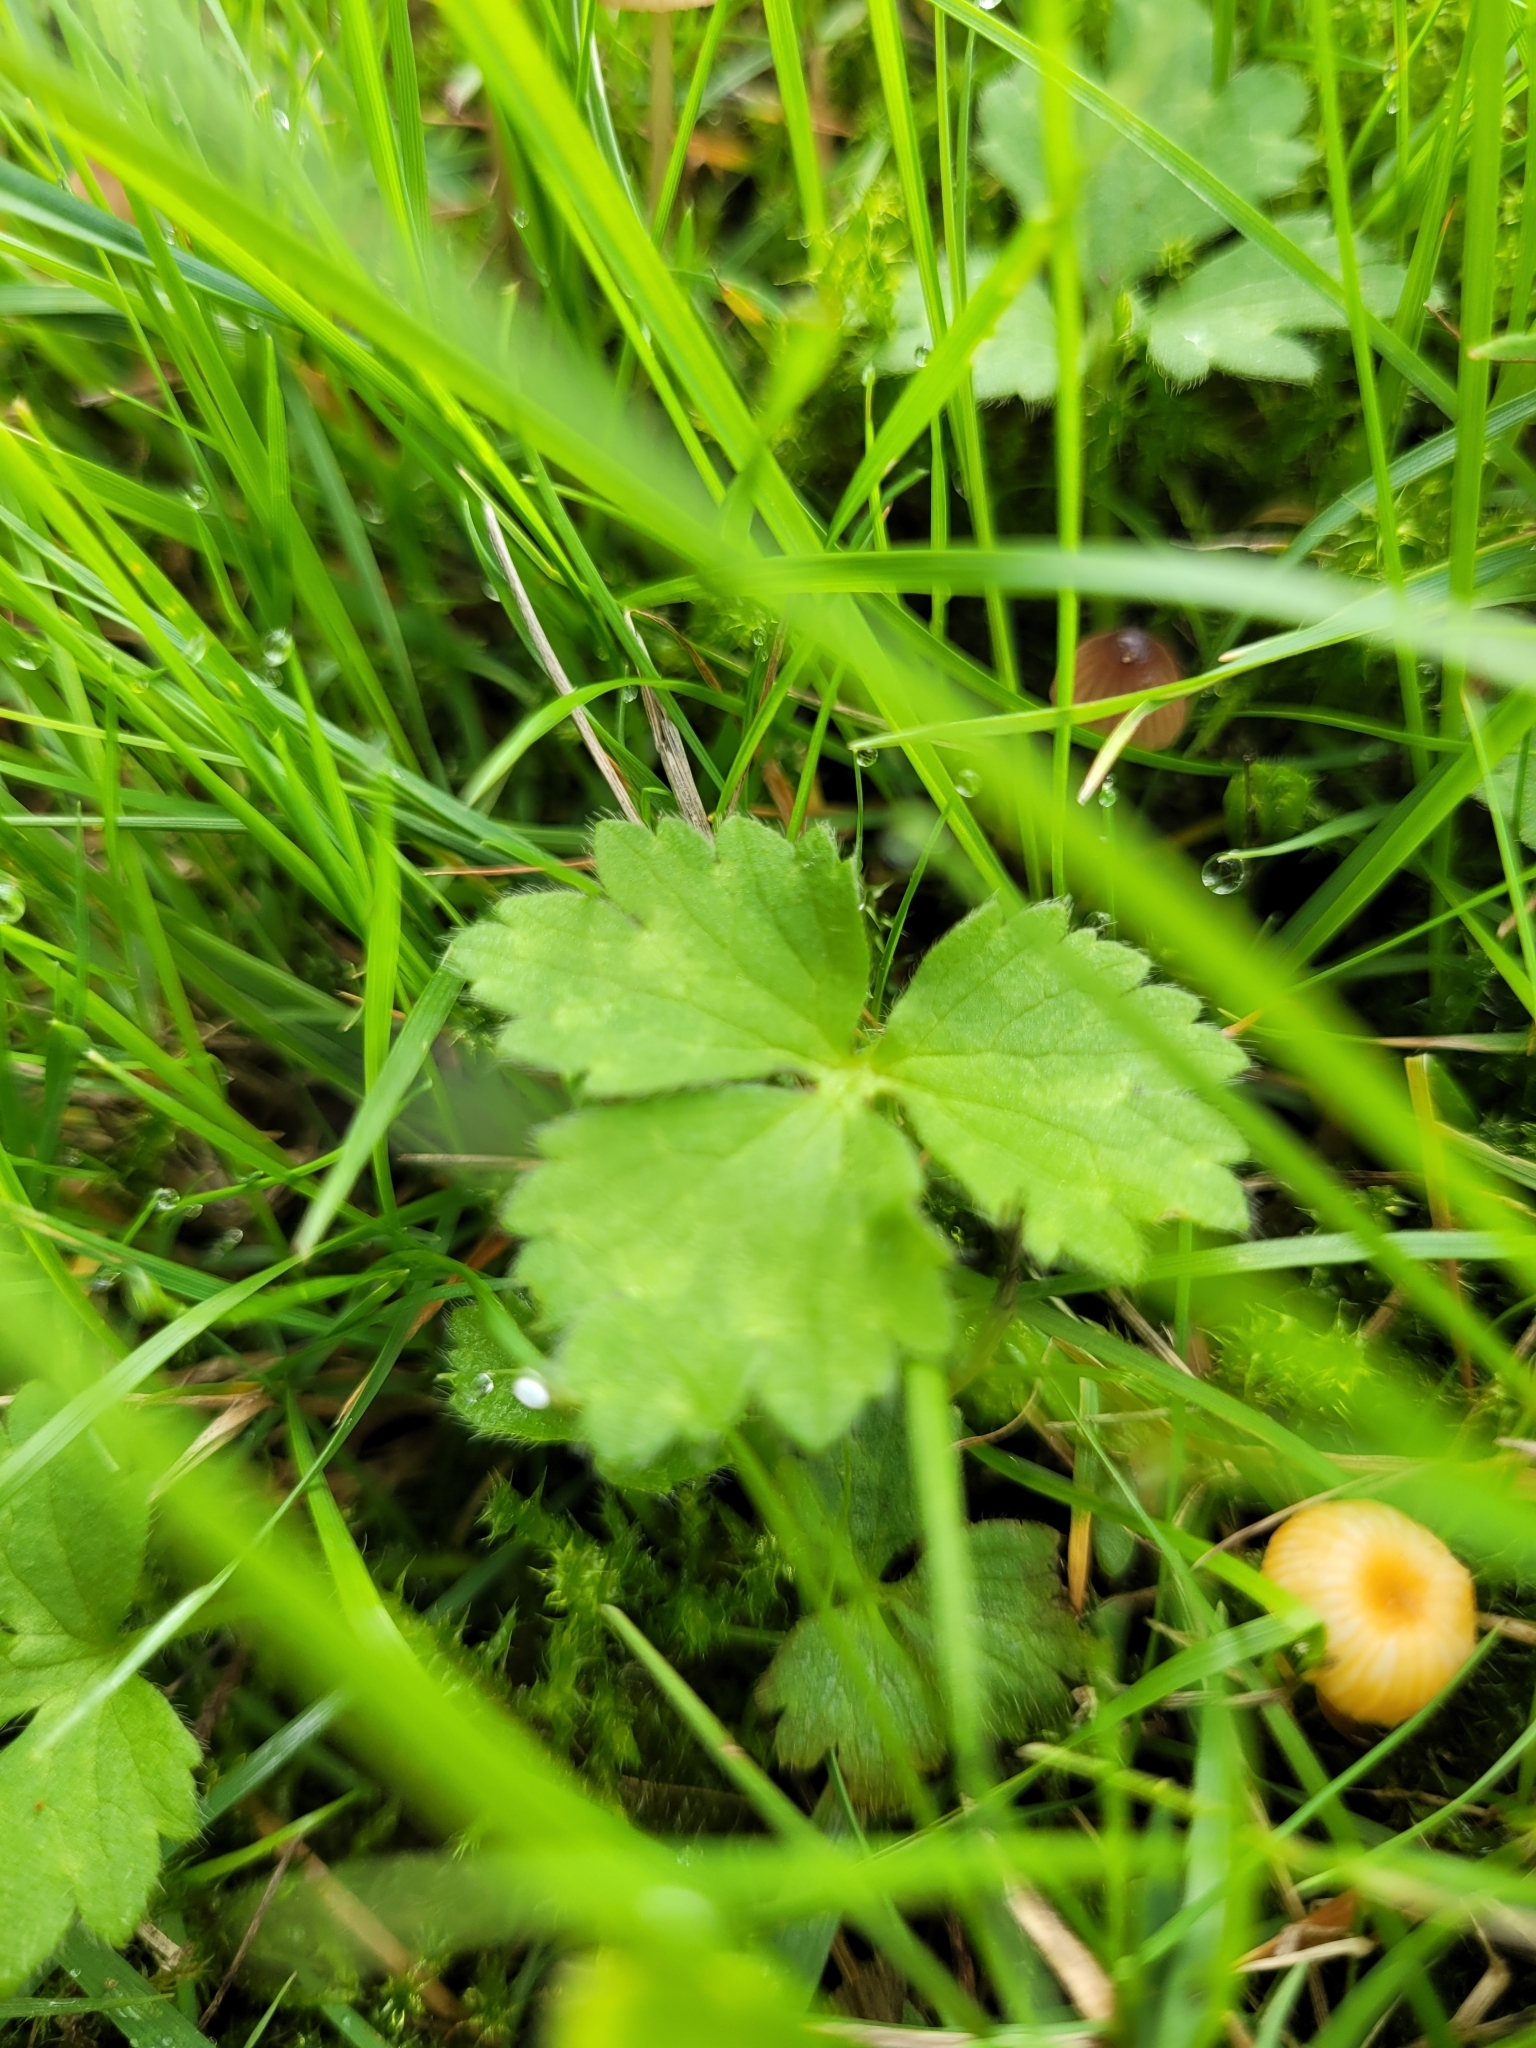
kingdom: Plantae
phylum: Tracheophyta
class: Magnoliopsida
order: Ranunculales
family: Ranunculaceae
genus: Ranunculus
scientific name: Ranunculus repens
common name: Creeping buttercup
